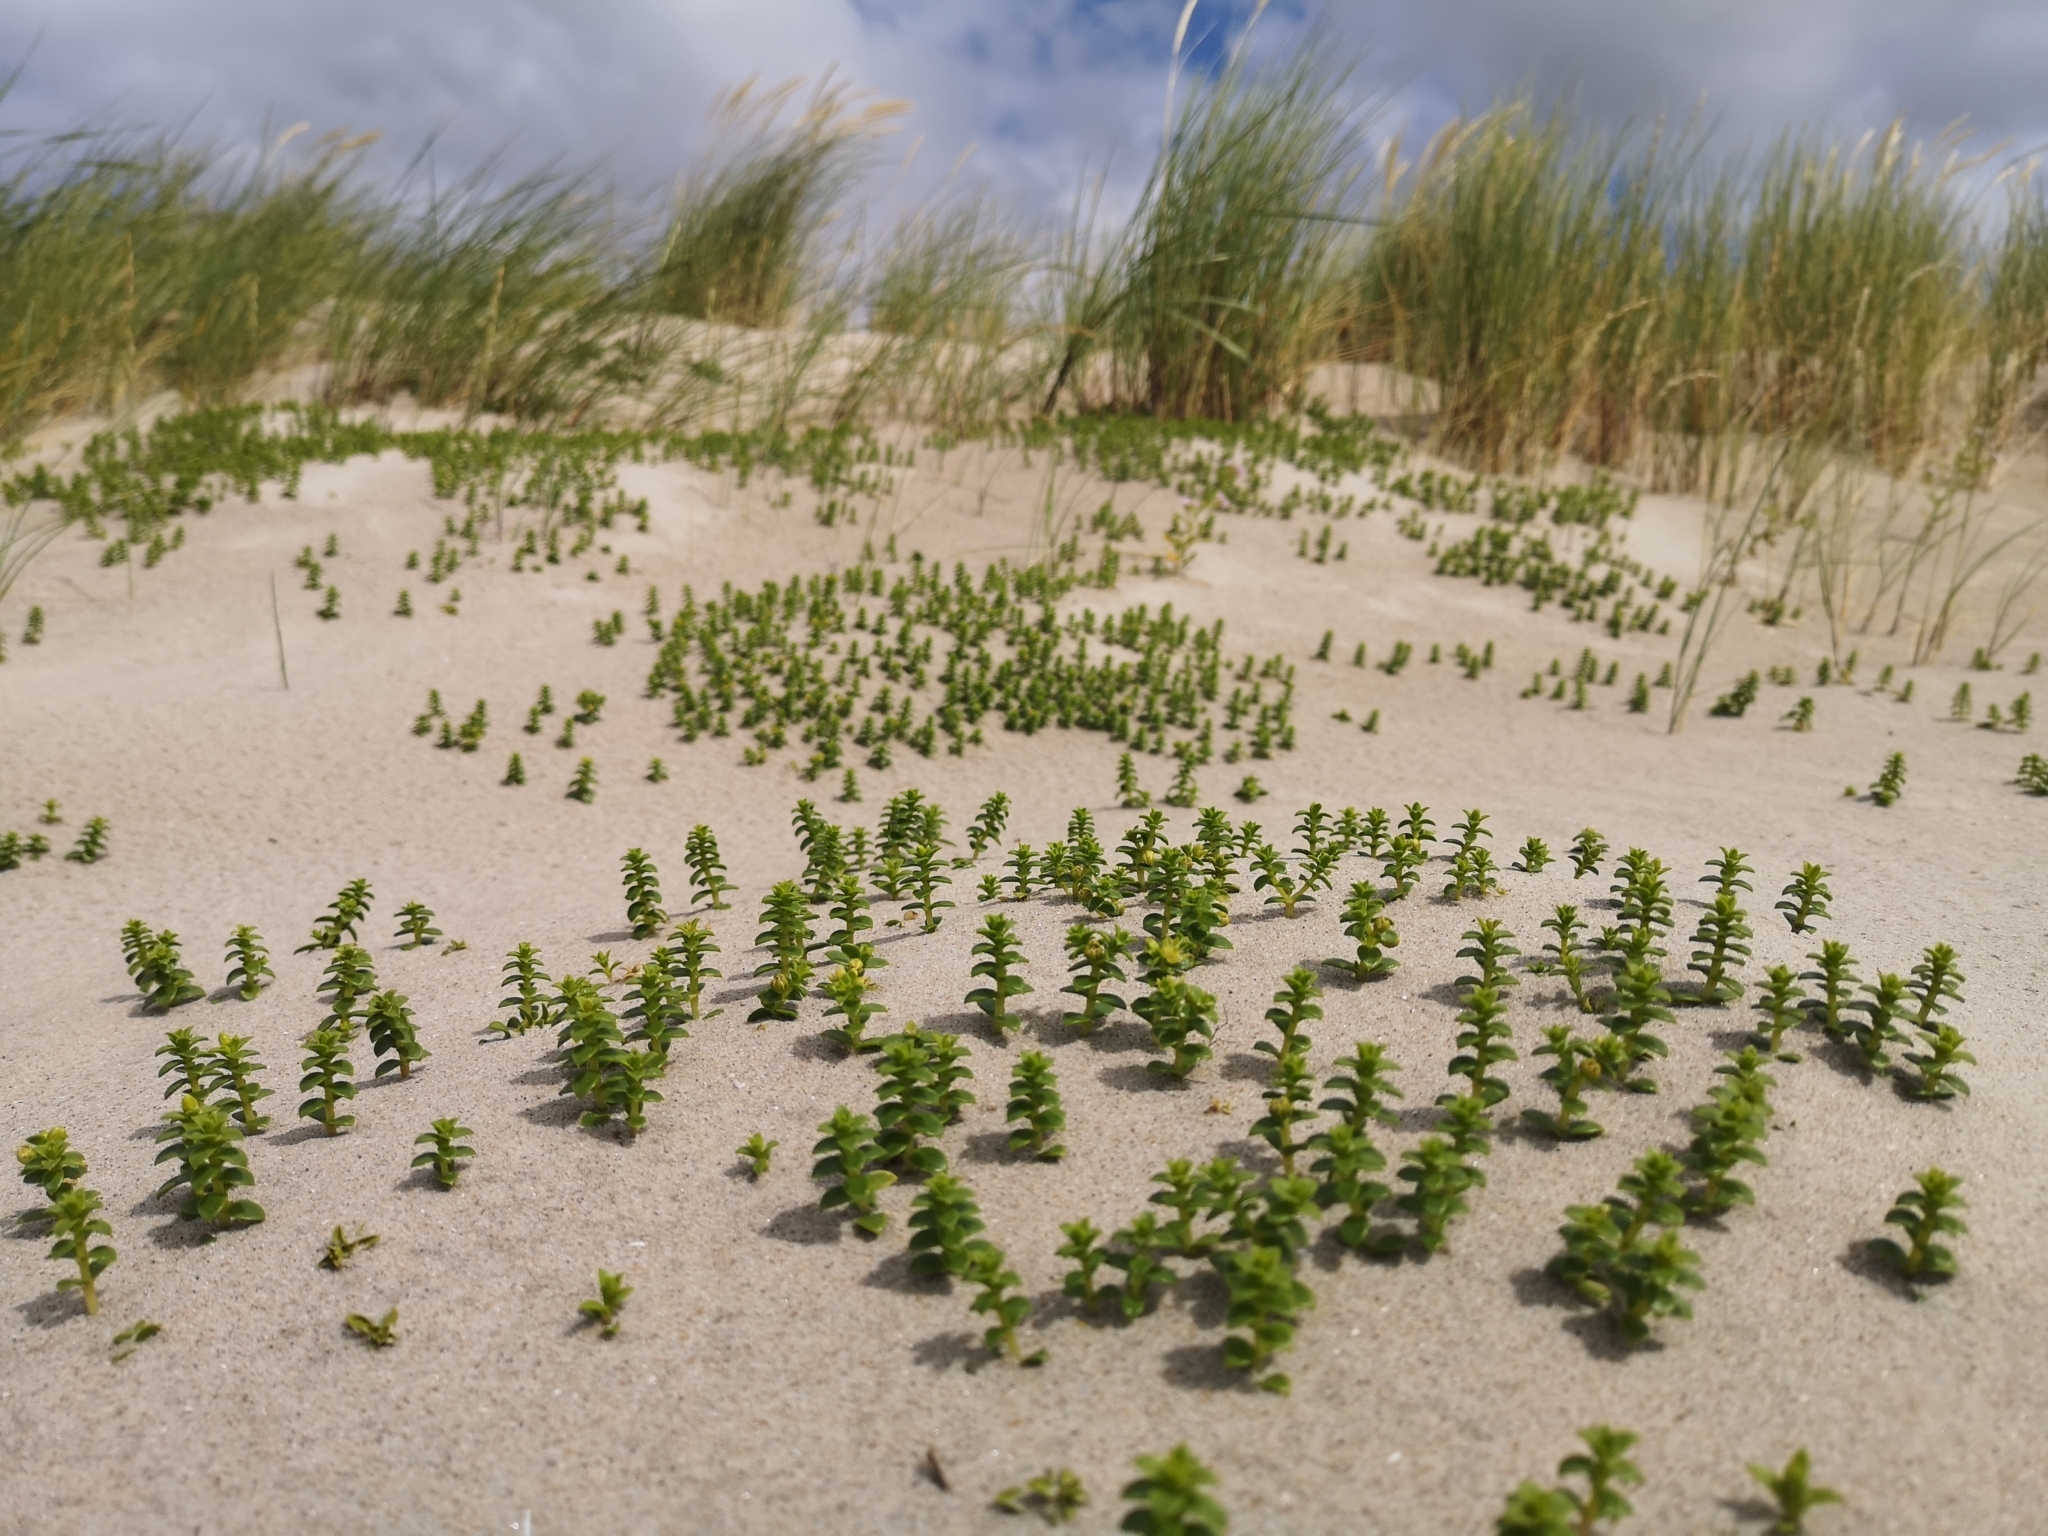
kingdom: Plantae
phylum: Tracheophyta
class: Magnoliopsida
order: Caryophyllales
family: Caryophyllaceae
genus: Honckenya
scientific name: Honckenya peploides
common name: Sea sandwort
